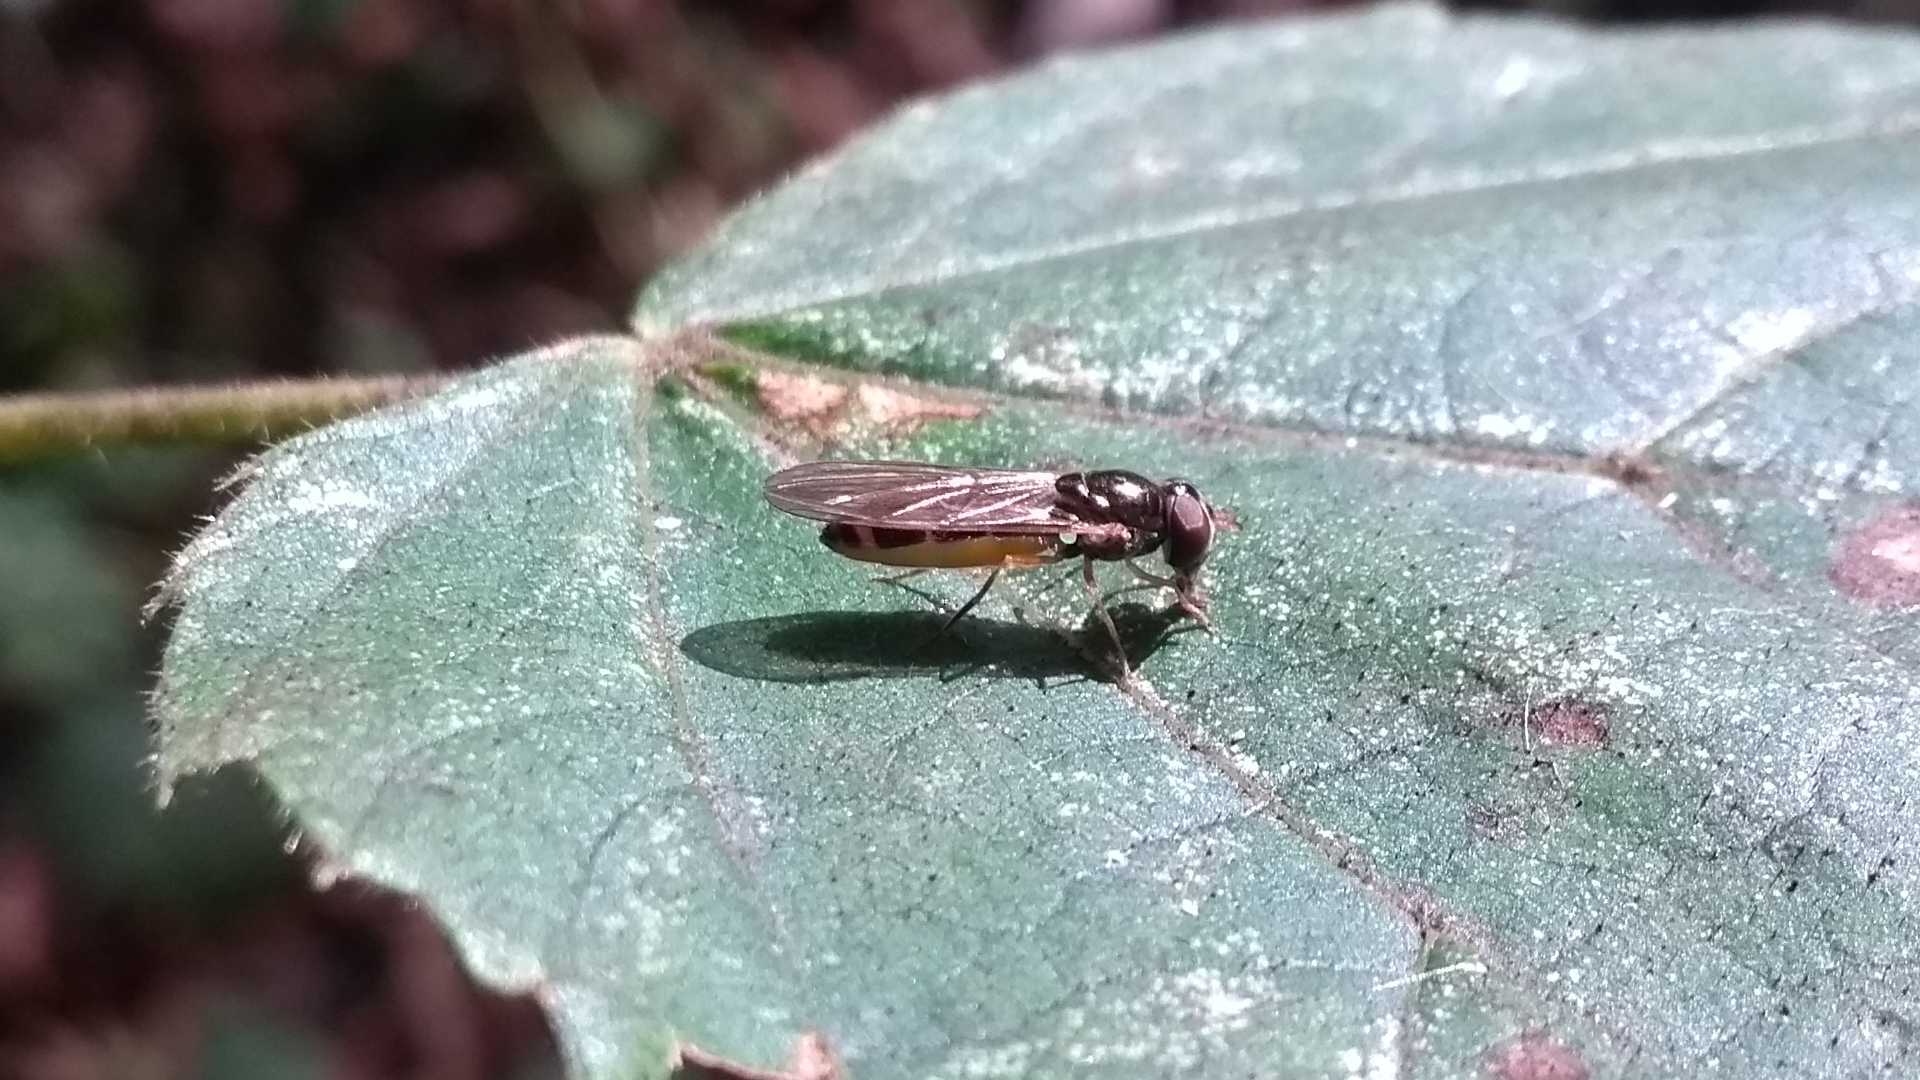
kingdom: Animalia
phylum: Arthropoda
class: Insecta
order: Diptera
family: Syrphidae
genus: Melanostoma
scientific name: Melanostoma scalare
